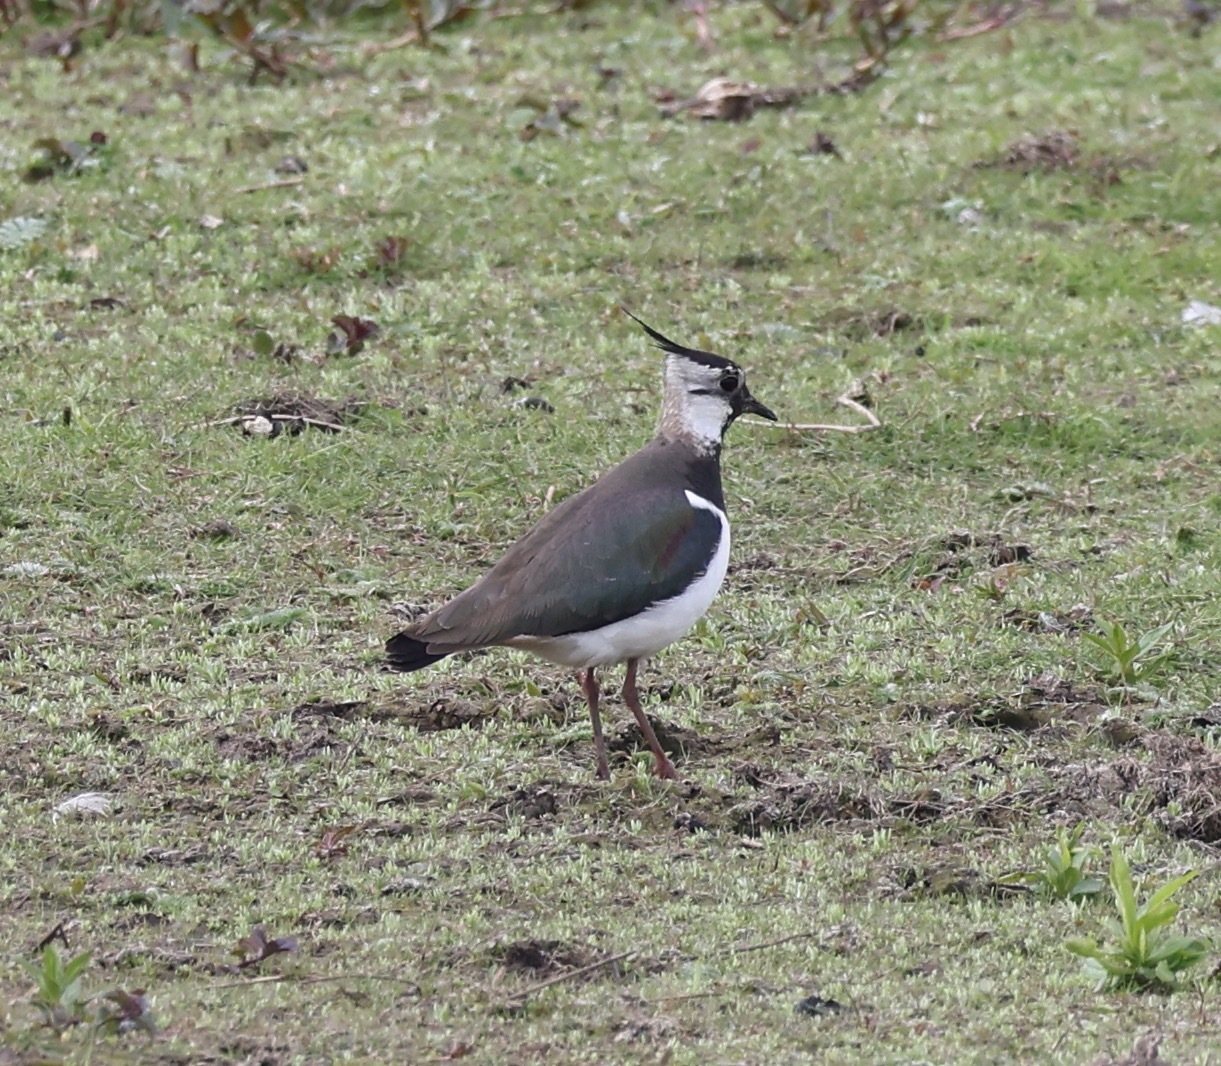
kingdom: Animalia
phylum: Chordata
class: Aves
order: Charadriiformes
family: Charadriidae
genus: Vanellus
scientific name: Vanellus vanellus
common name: Northern lapwing
